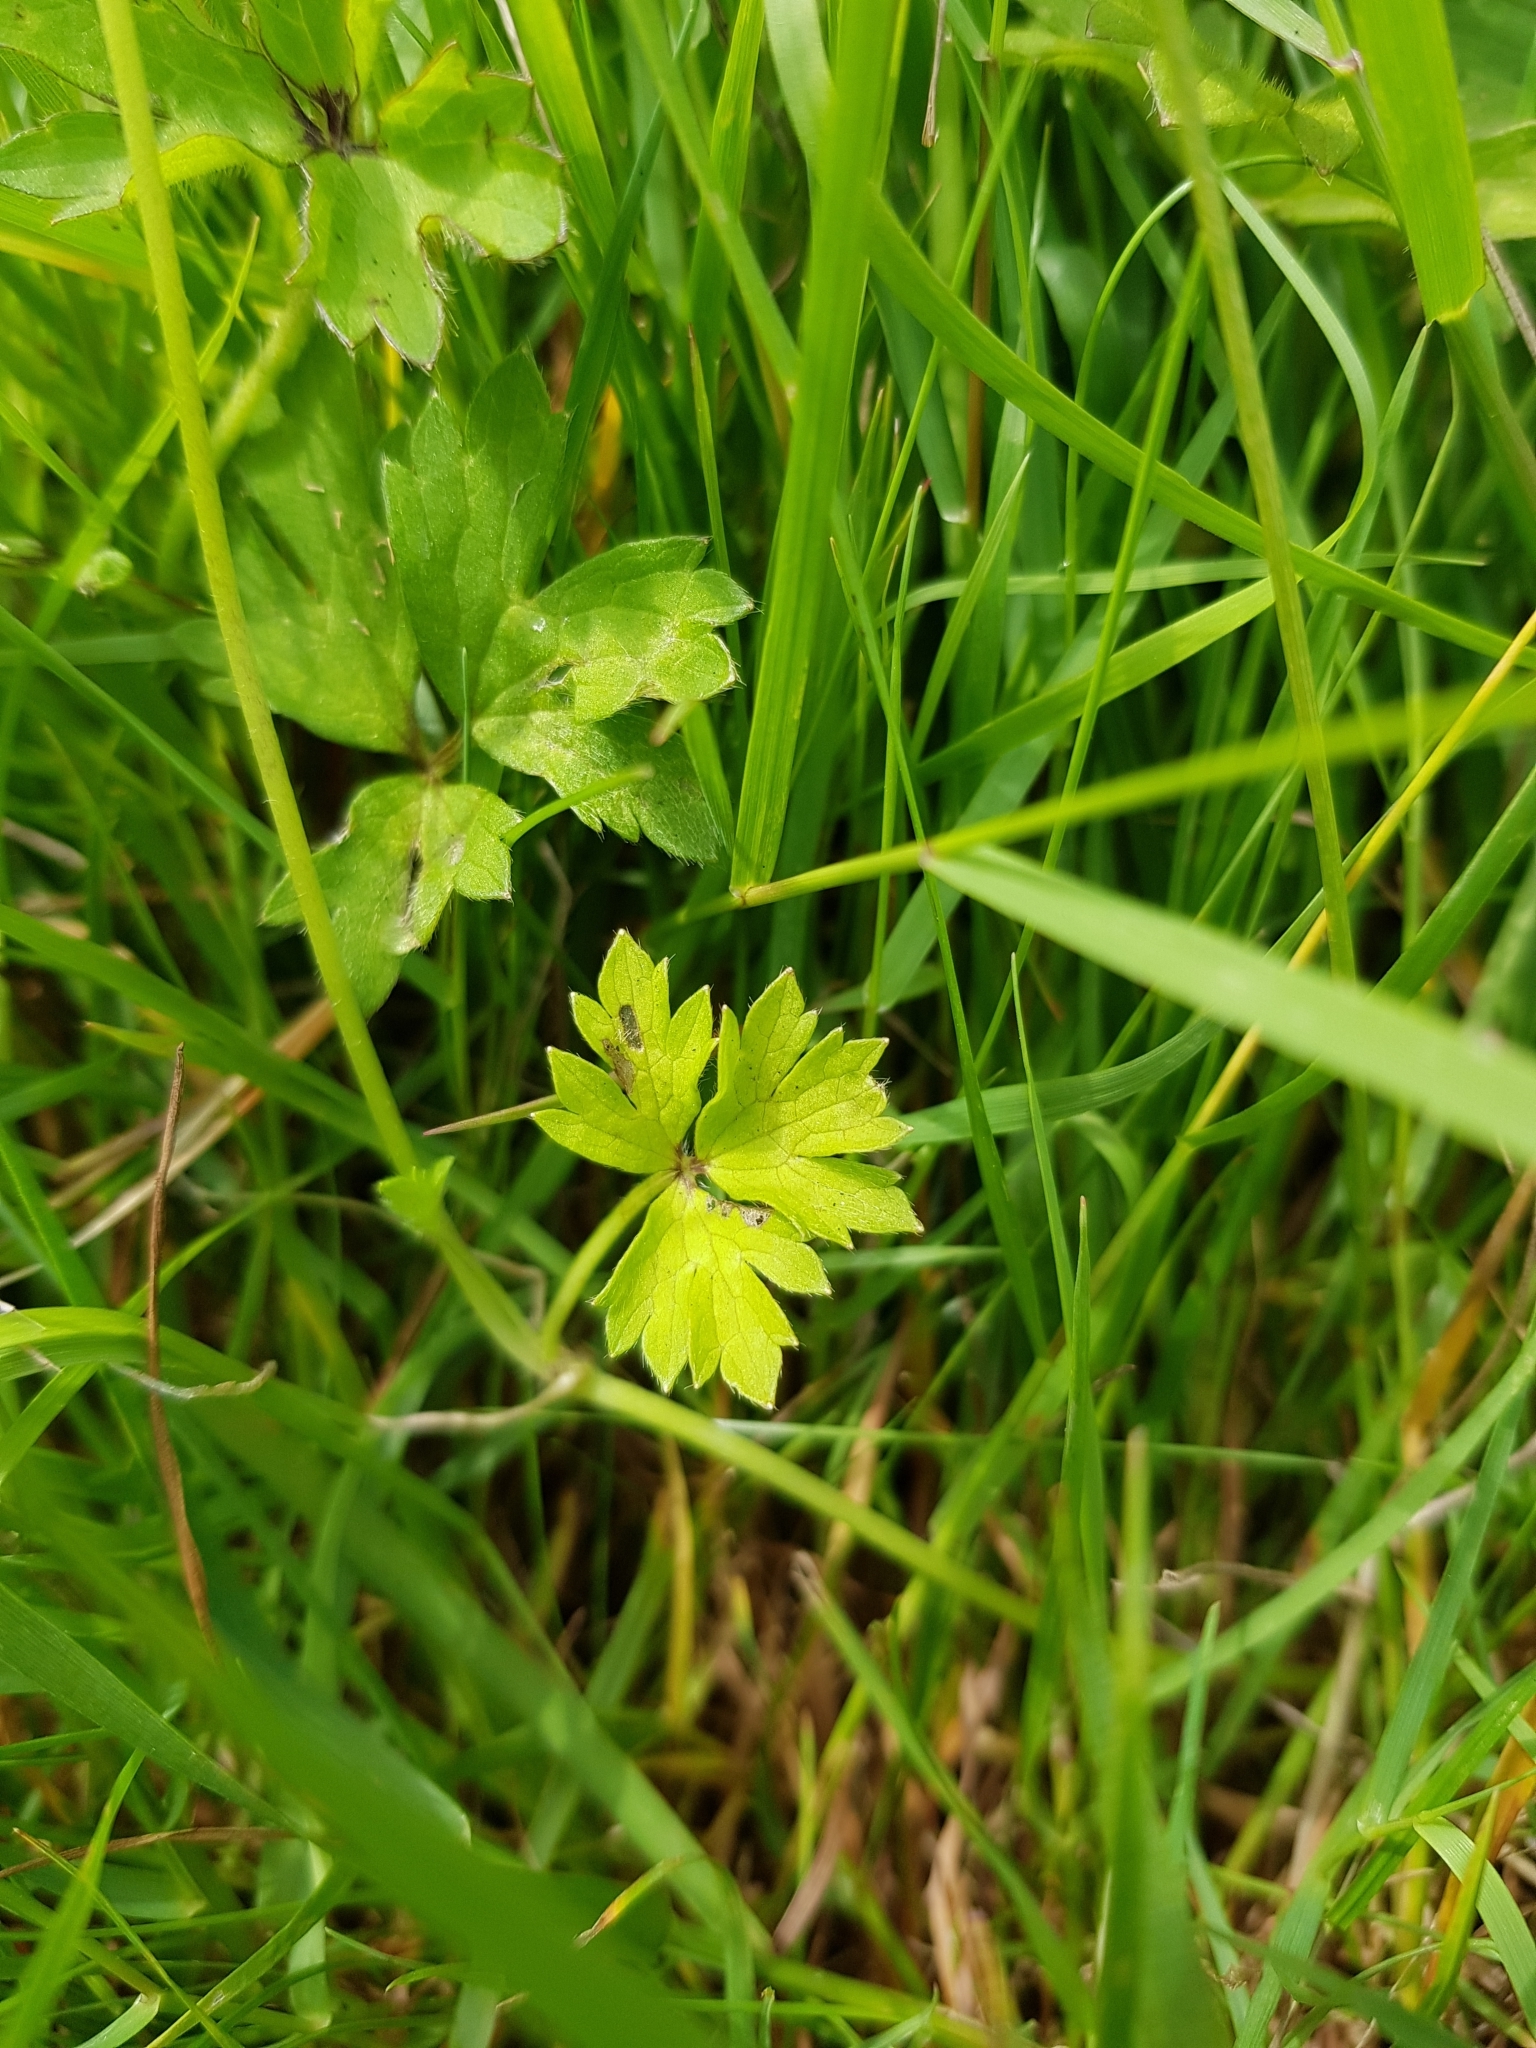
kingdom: Plantae
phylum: Tracheophyta
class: Magnoliopsida
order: Ranunculales
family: Ranunculaceae
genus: Ranunculus
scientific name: Ranunculus repens
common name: Creeping buttercup
